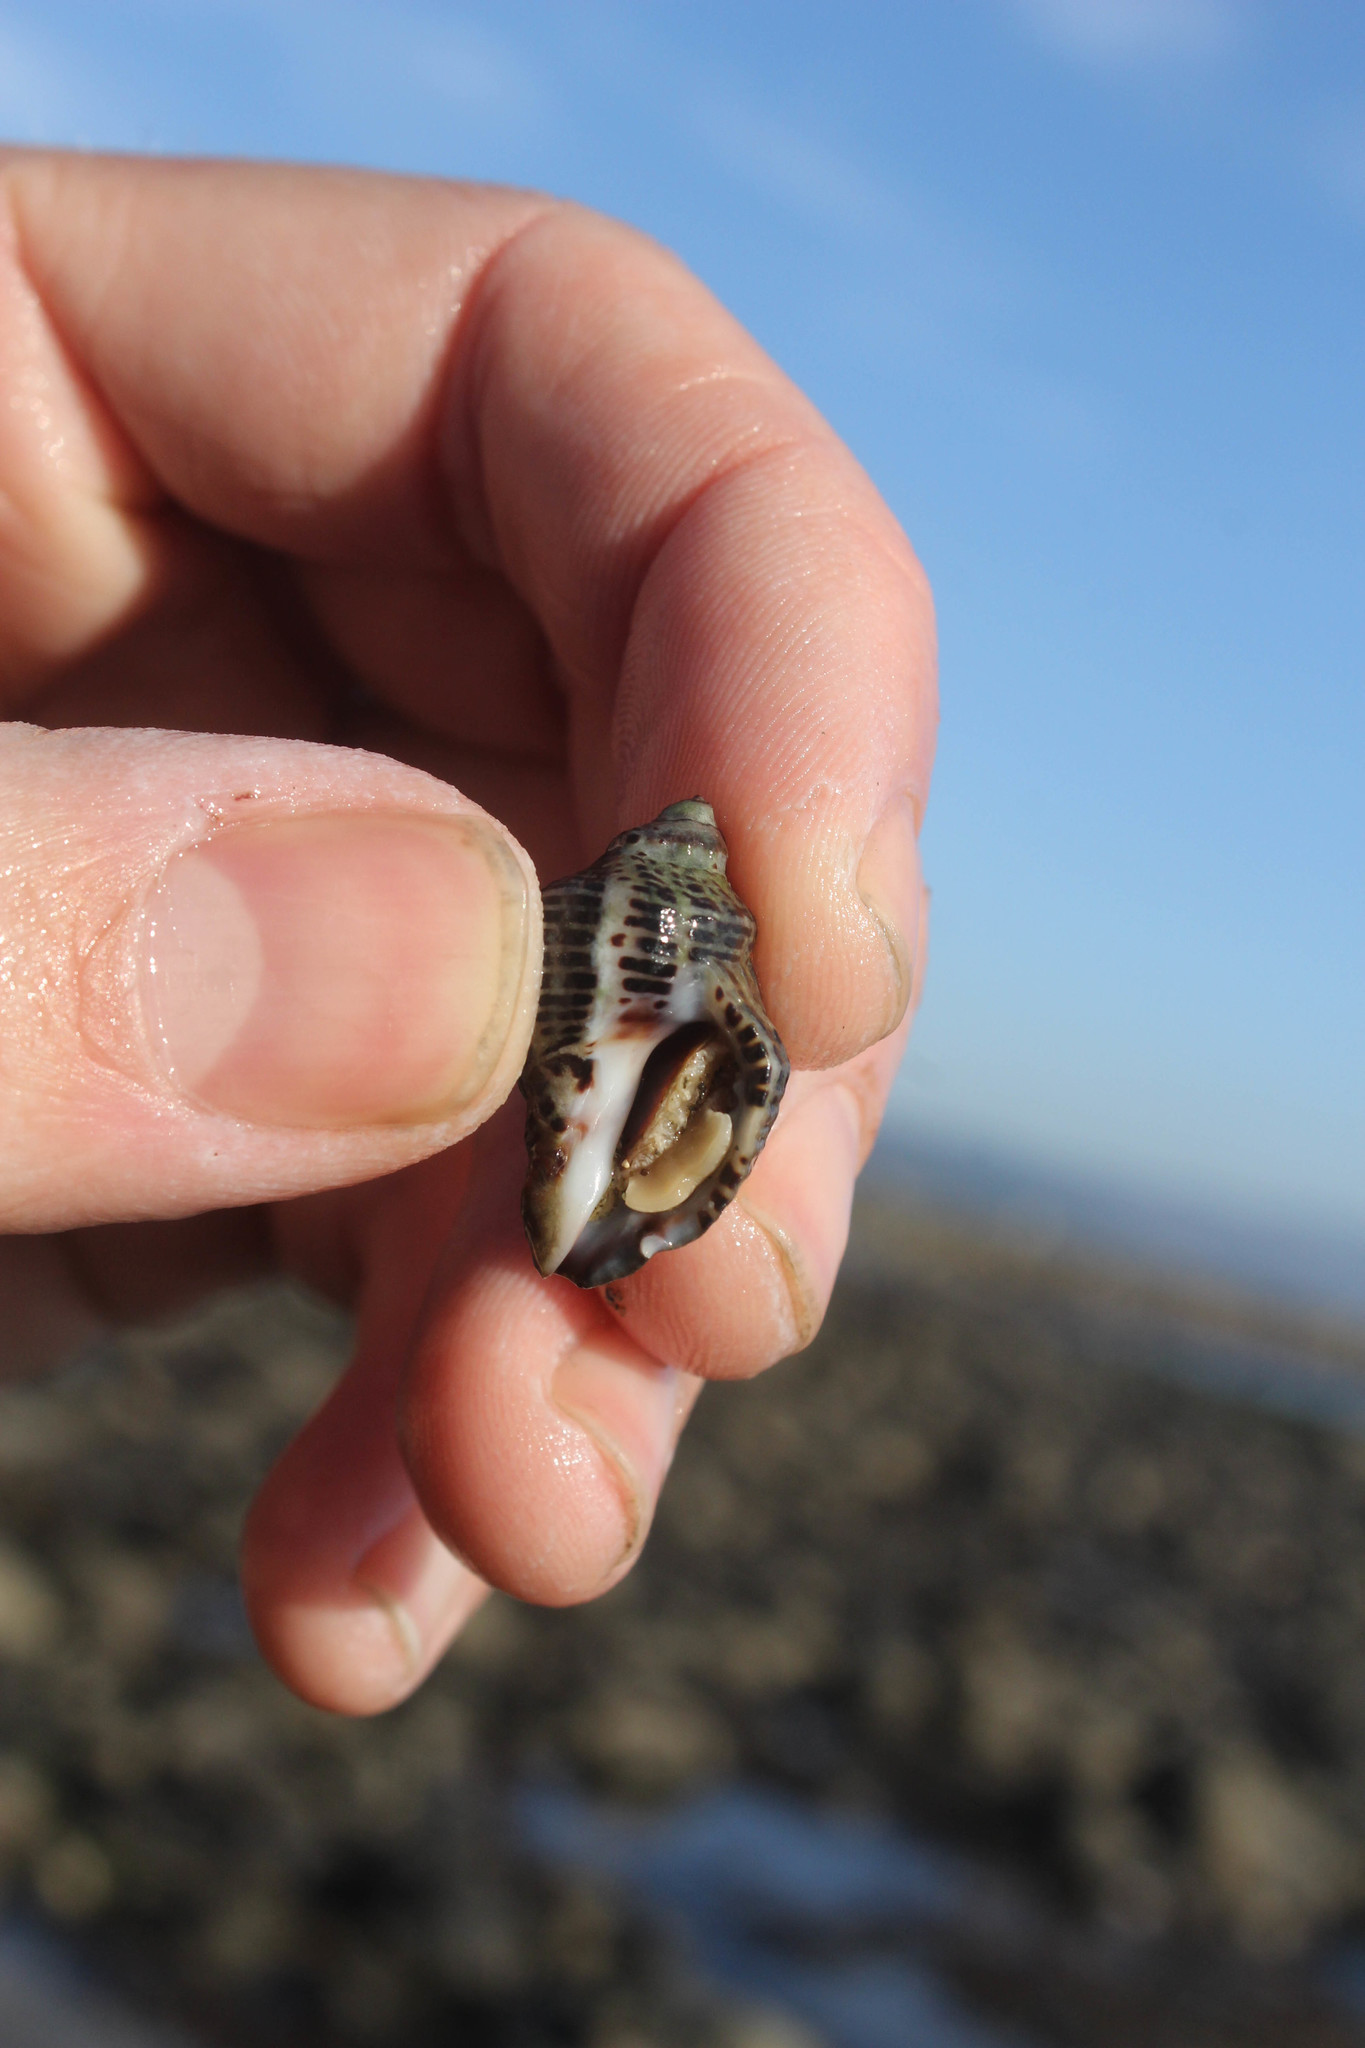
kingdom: Animalia
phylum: Mollusca
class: Gastropoda
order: Neogastropoda
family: Muricidae
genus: Acanthinucella
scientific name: Acanthinucella spirata
